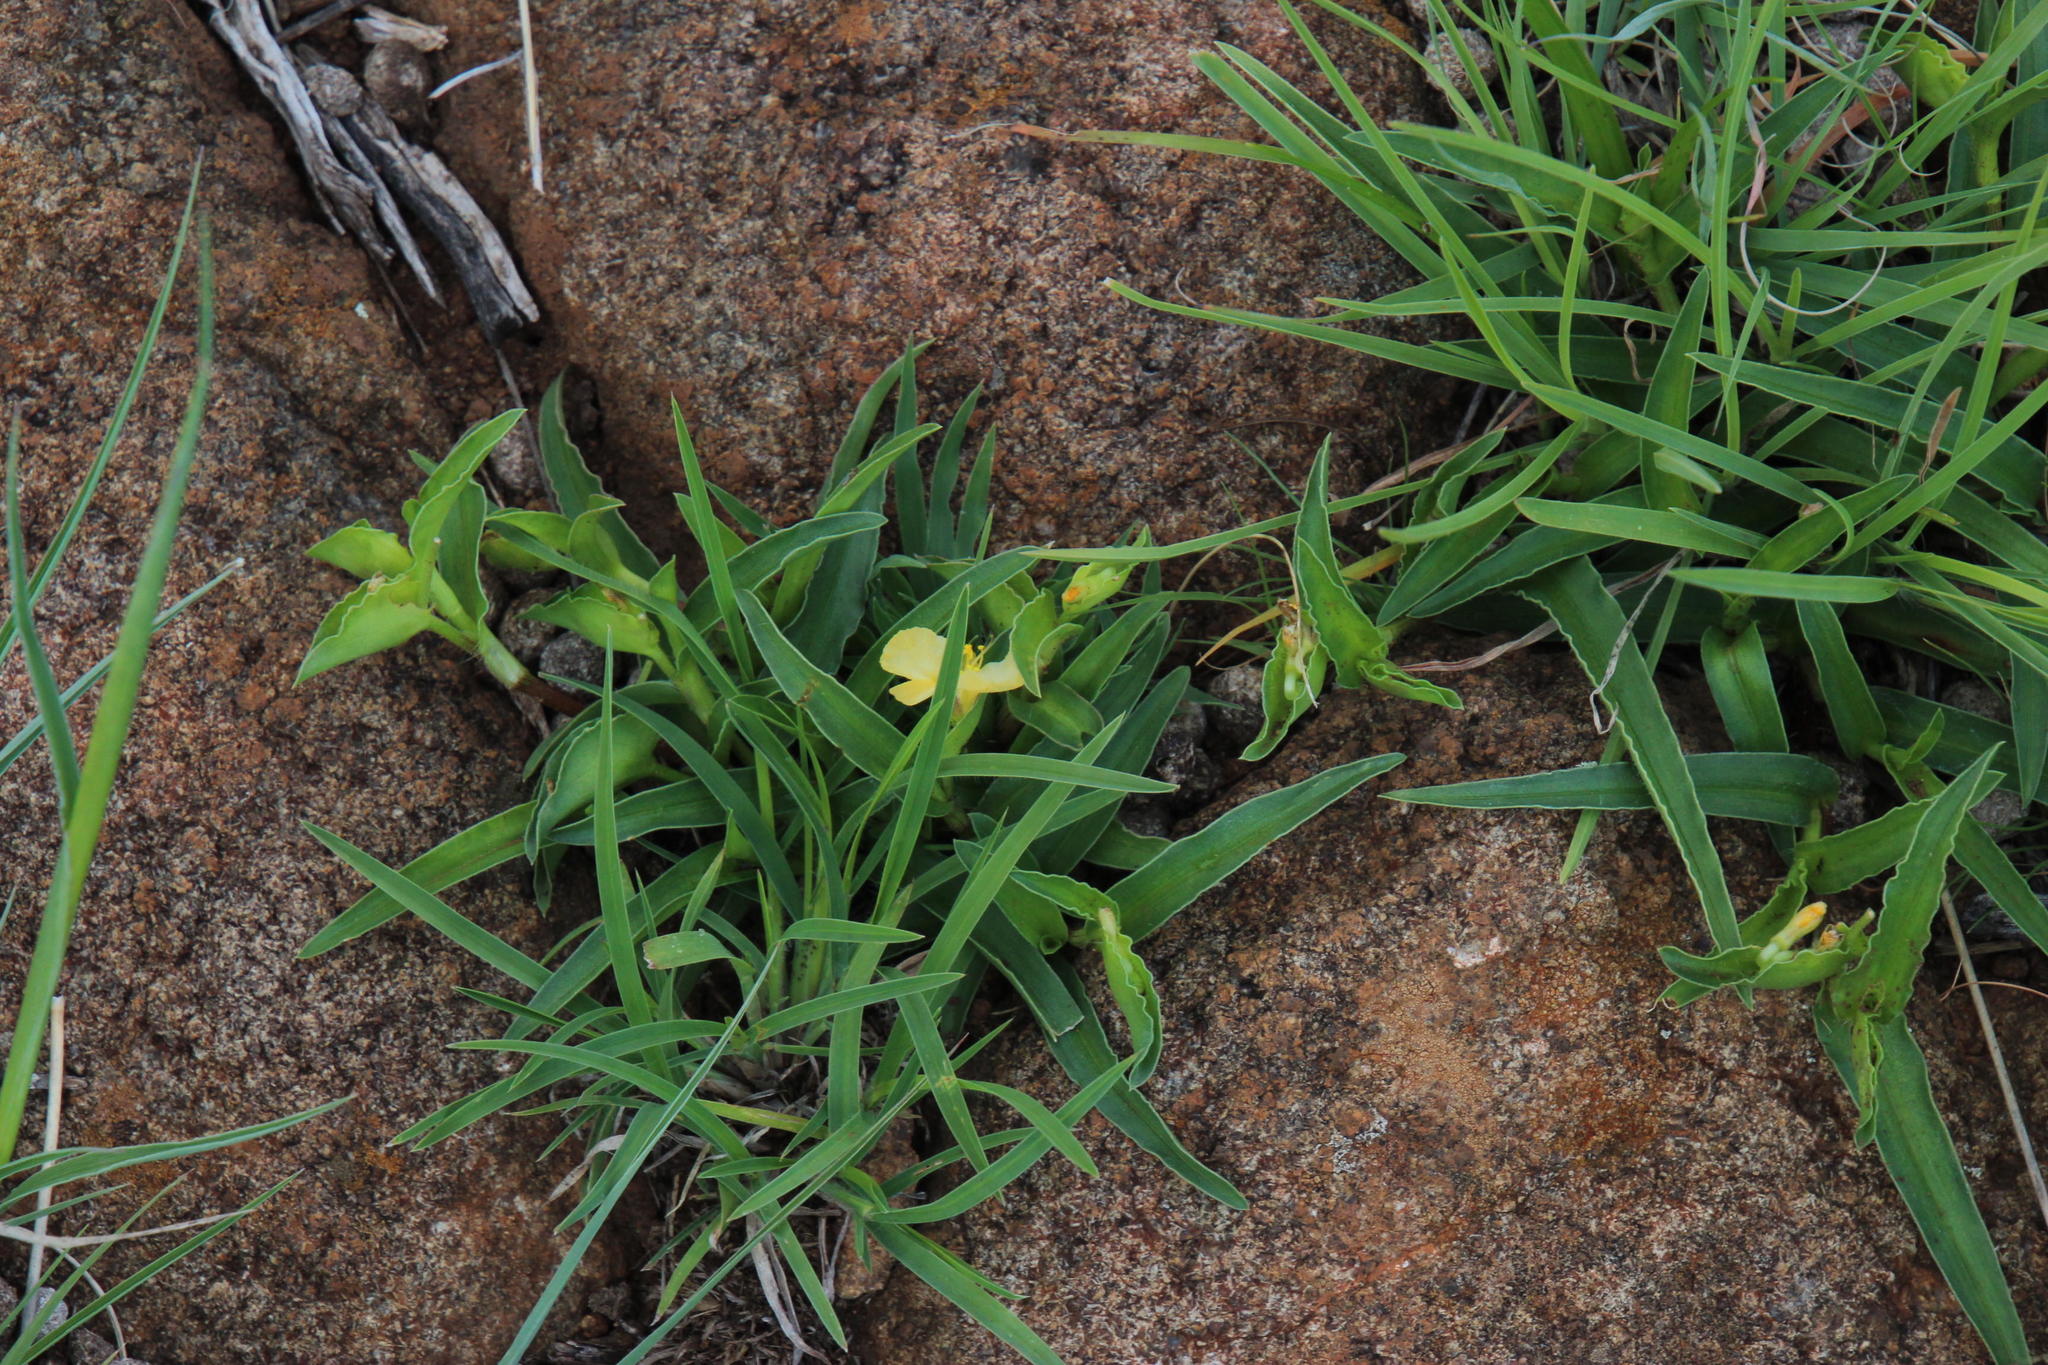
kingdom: Plantae
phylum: Tracheophyta
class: Liliopsida
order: Commelinales
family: Commelinaceae
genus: Commelina
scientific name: Commelina africana
